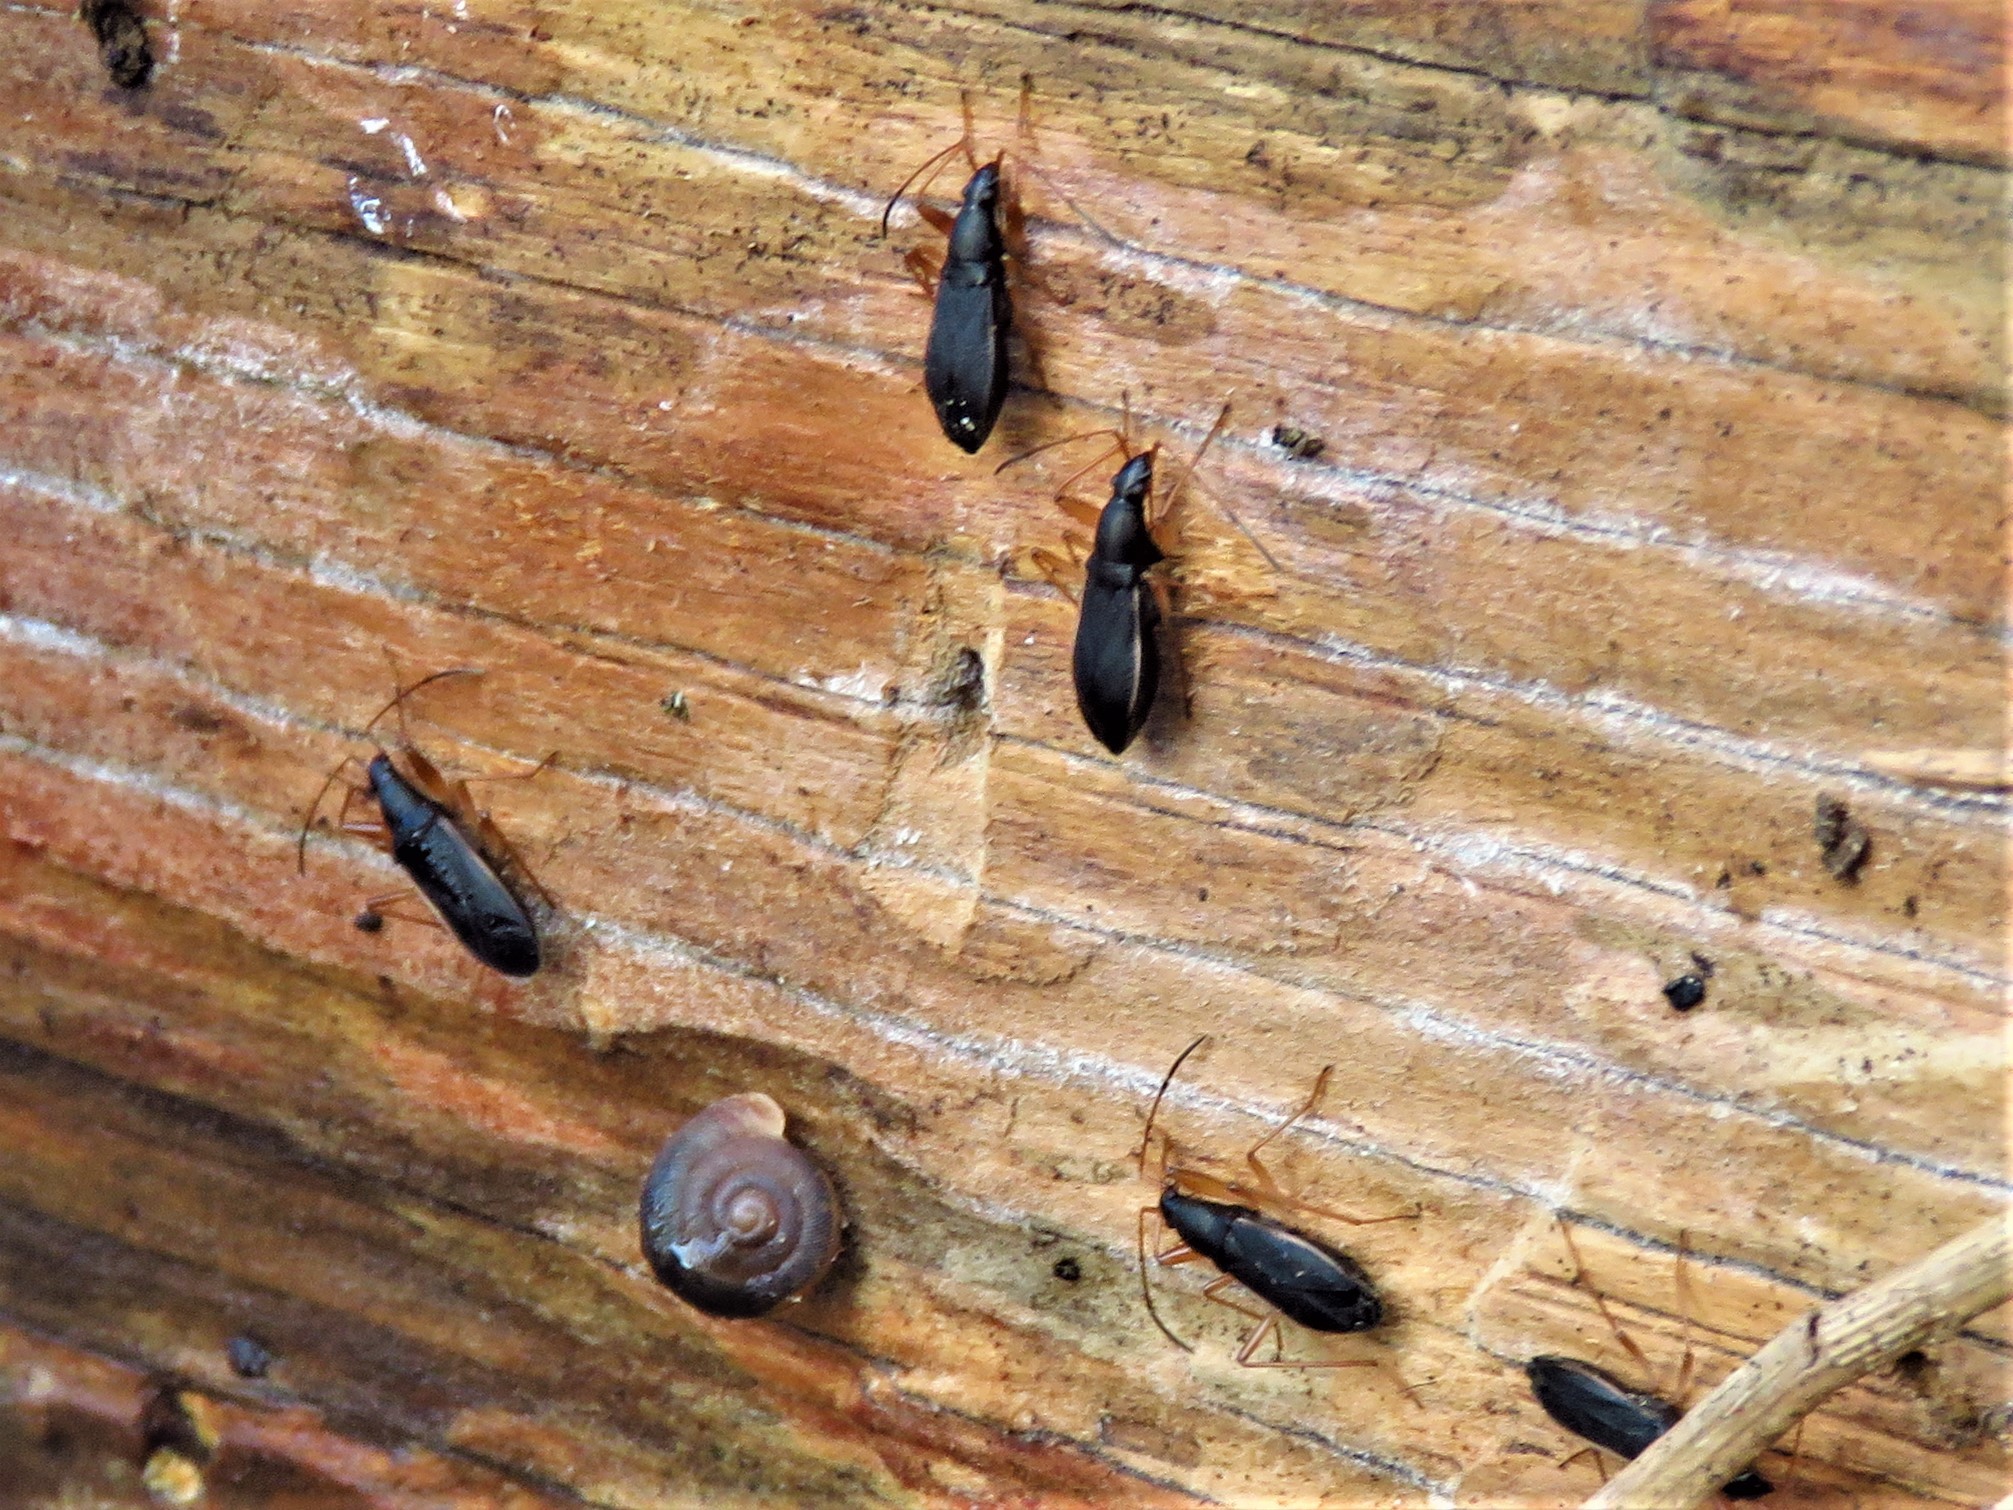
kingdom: Animalia
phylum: Arthropoda
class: Insecta
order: Hemiptera
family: Rhyparochromidae
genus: Cnemodus
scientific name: Cnemodus mavortius
